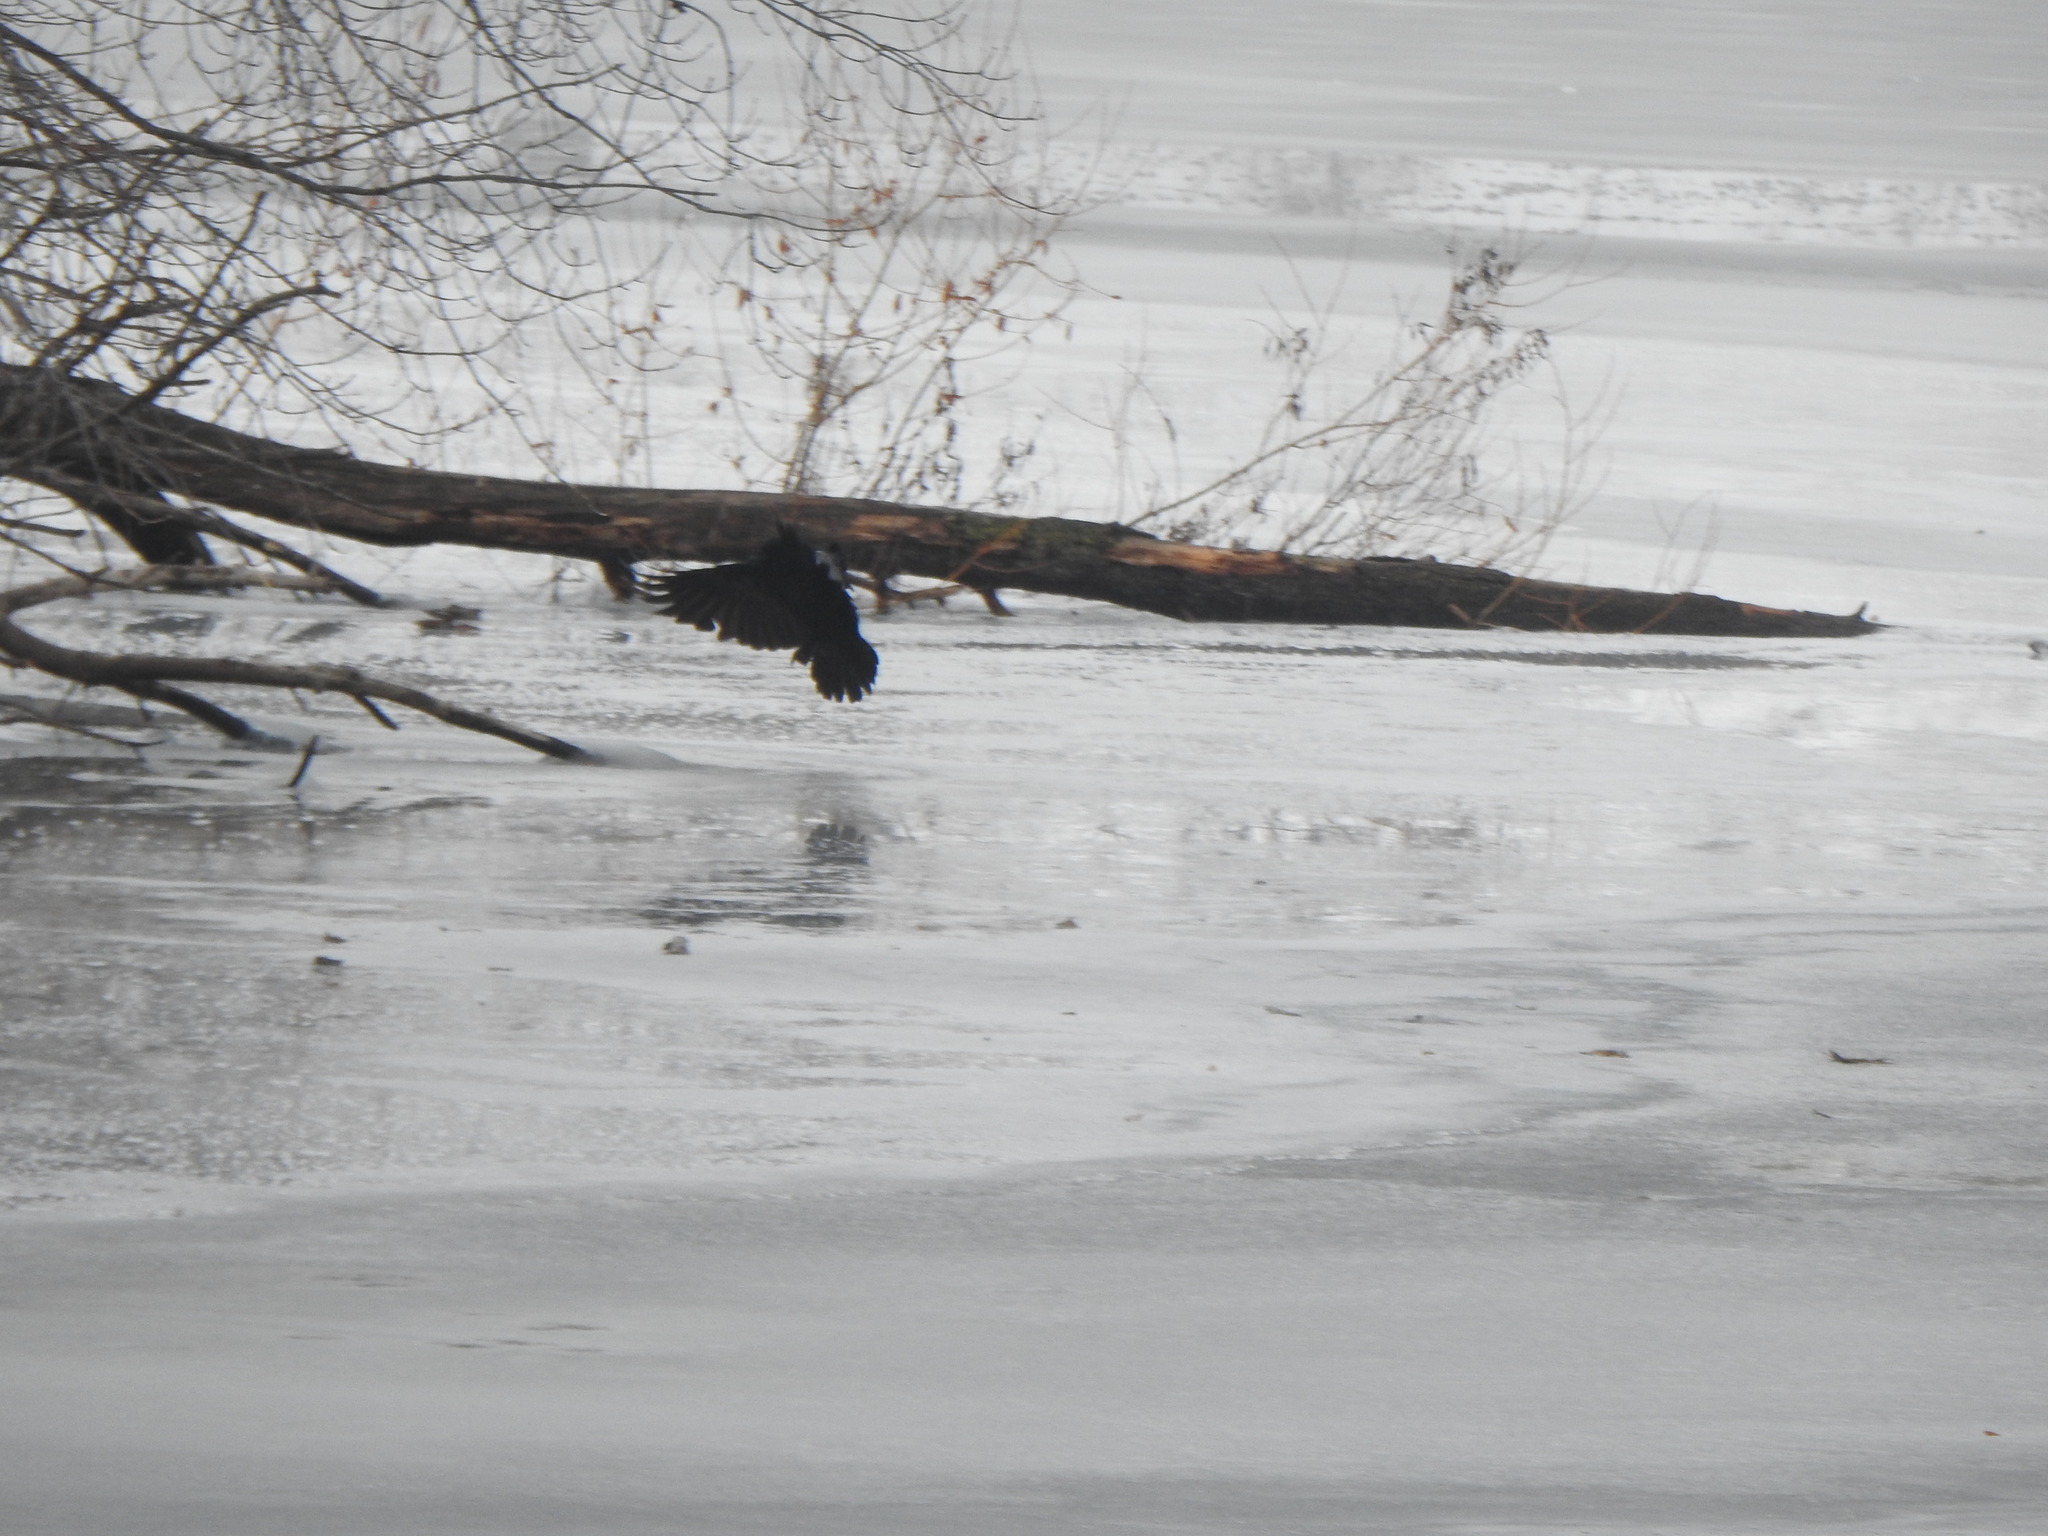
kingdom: Animalia
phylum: Chordata
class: Aves
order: Passeriformes
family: Corvidae
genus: Corvus
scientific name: Corvus brachyrhynchos
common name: American crow
